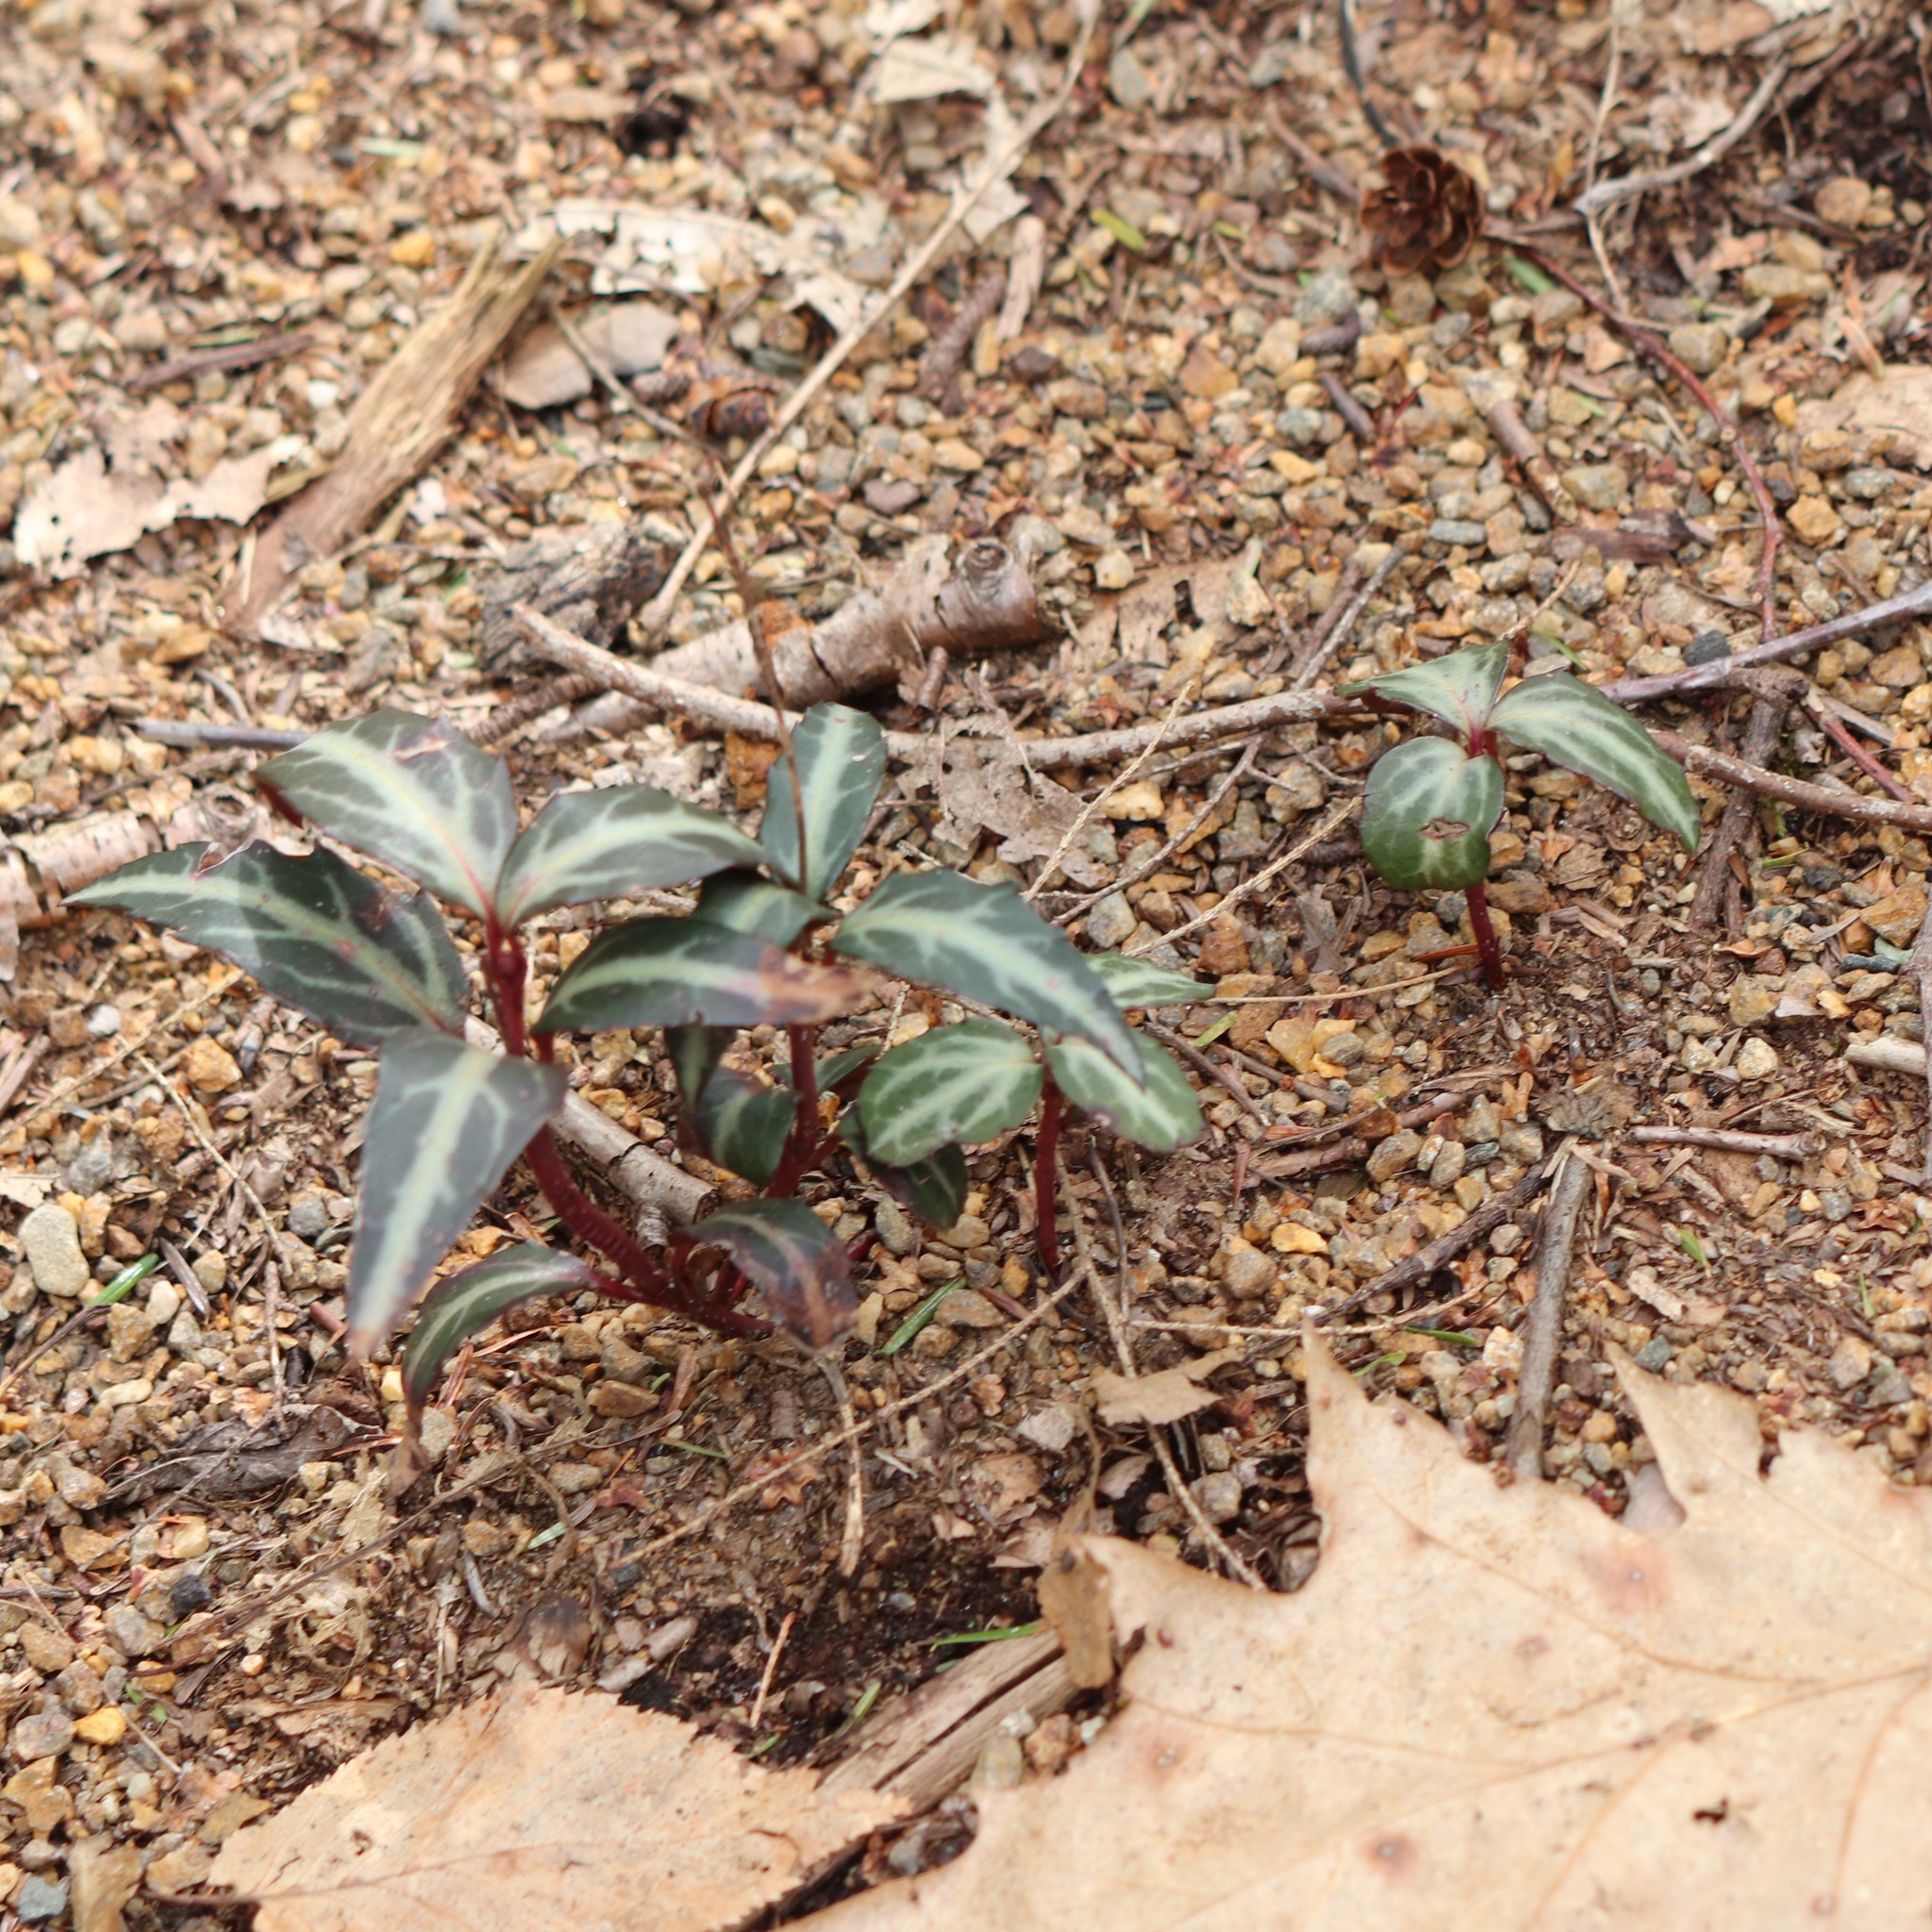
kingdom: Plantae
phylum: Tracheophyta
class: Magnoliopsida
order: Ericales
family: Ericaceae
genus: Chimaphila
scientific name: Chimaphila maculata
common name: Spotted pipsissewa
